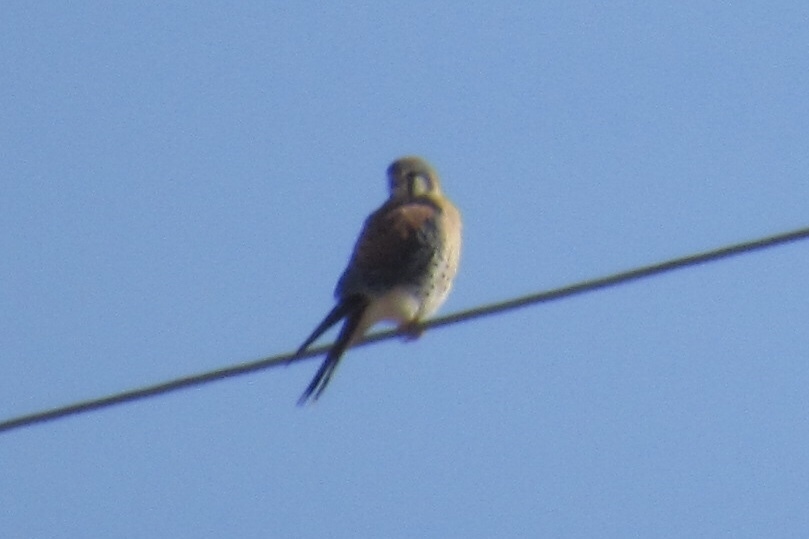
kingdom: Animalia
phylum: Chordata
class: Aves
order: Falconiformes
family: Falconidae
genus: Falco
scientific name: Falco sparverius
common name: American kestrel
